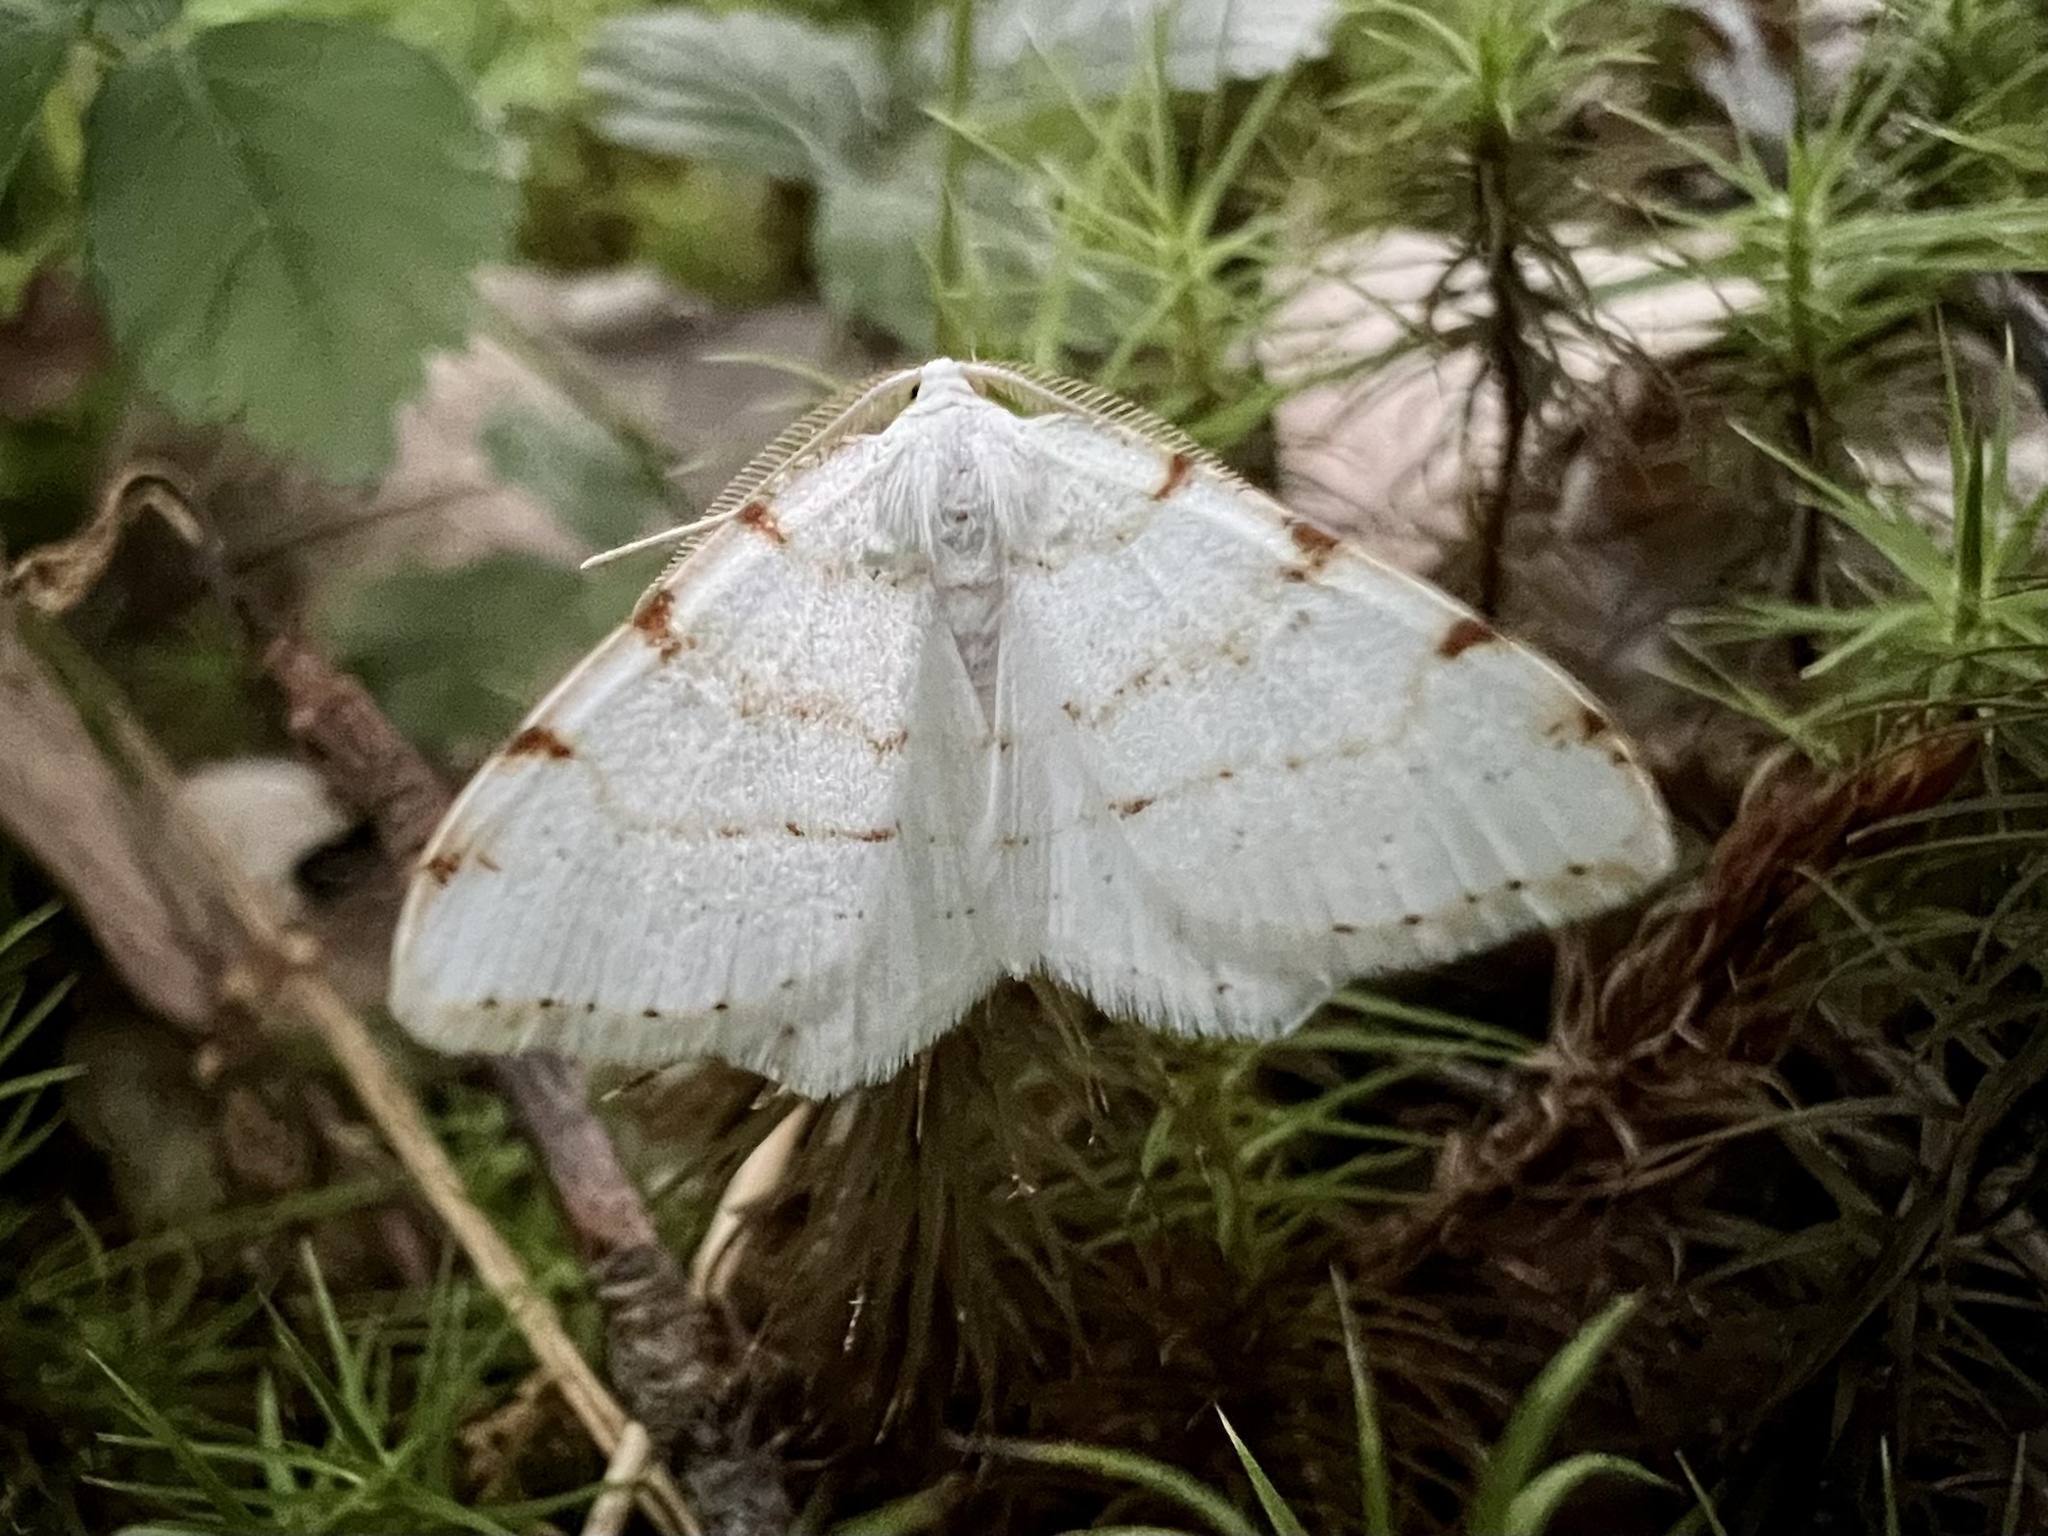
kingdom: Animalia
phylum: Arthropoda
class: Insecta
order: Lepidoptera
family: Geometridae
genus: Macaria
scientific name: Macaria pustularia
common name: Lesser maple spanworm moth
